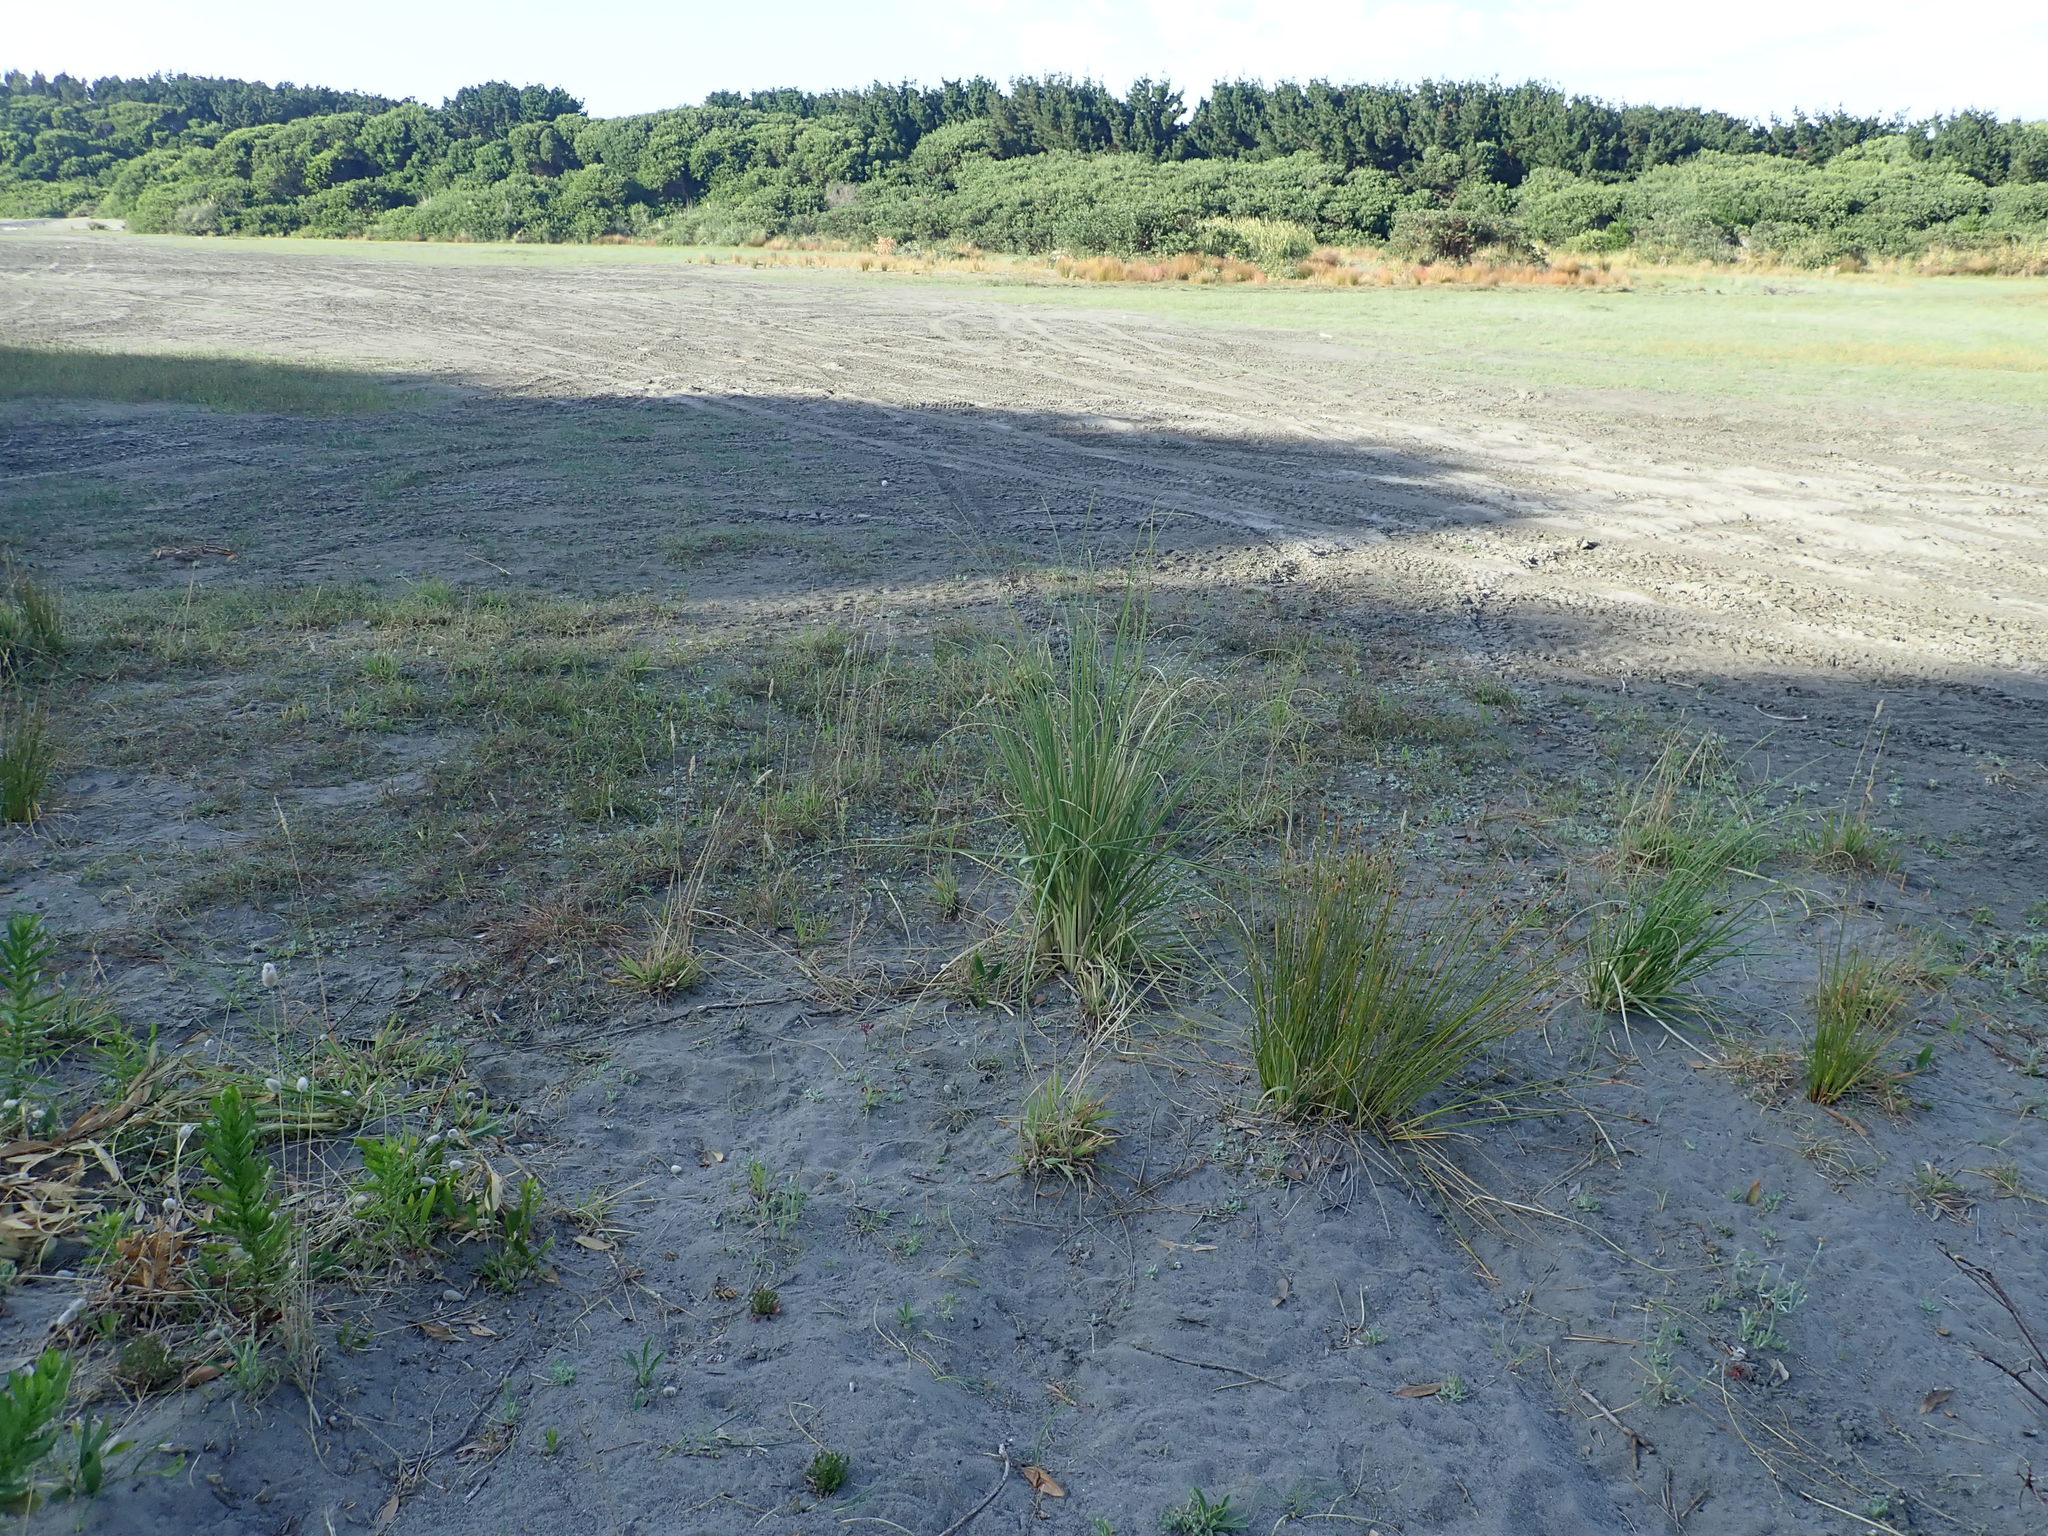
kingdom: Plantae
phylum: Tracheophyta
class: Liliopsida
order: Poales
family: Poaceae
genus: Cortaderia
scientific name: Cortaderia selloana
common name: Uruguayan pampas grass
